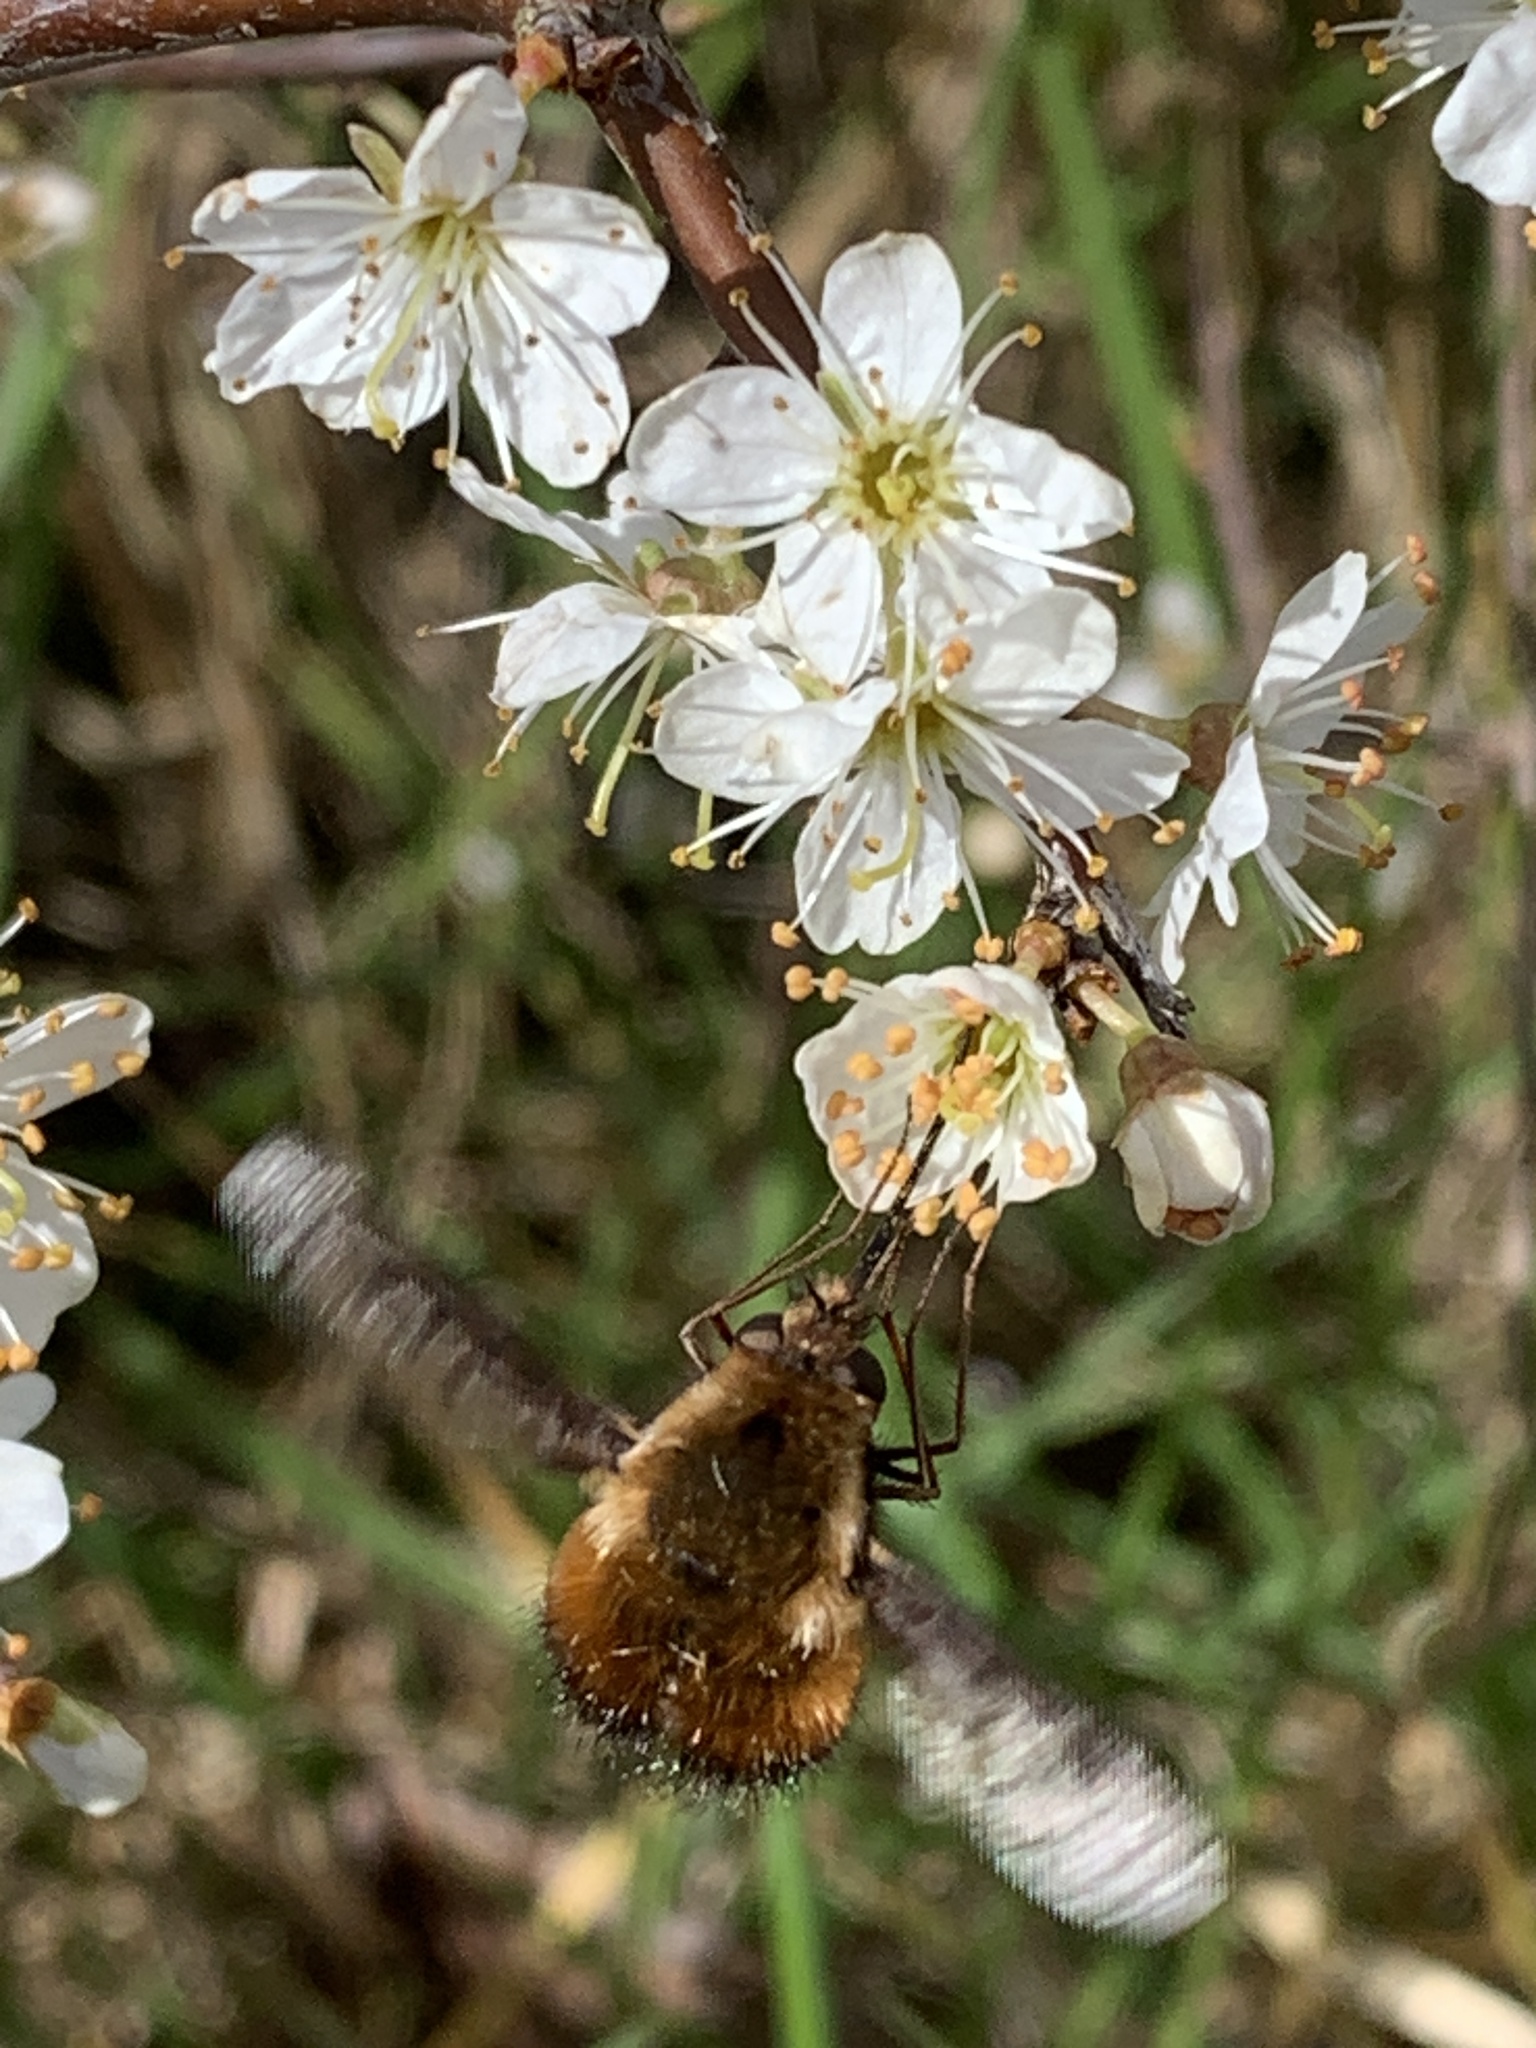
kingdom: Animalia
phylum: Arthropoda
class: Insecta
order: Diptera
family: Bombyliidae
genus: Bombylius
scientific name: Bombylius major
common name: Bee fly
